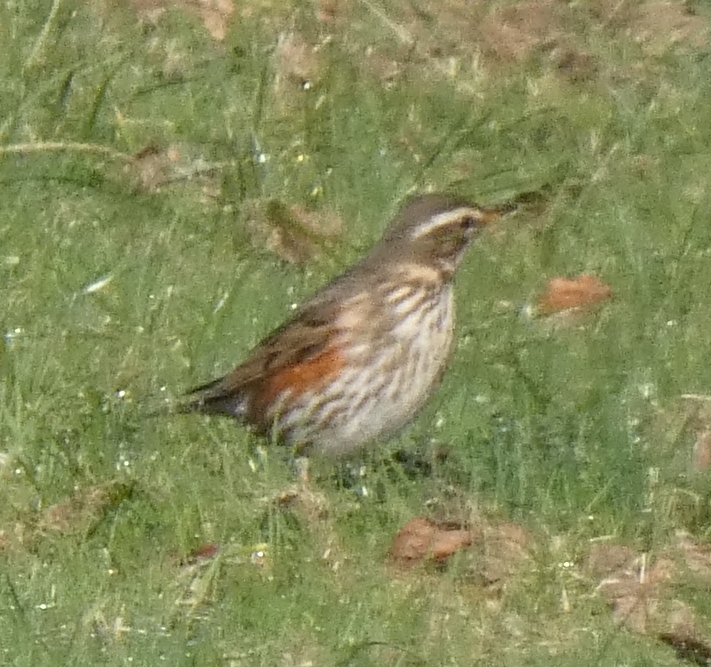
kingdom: Animalia
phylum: Chordata
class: Aves
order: Passeriformes
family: Turdidae
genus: Turdus
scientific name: Turdus iliacus
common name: Redwing
